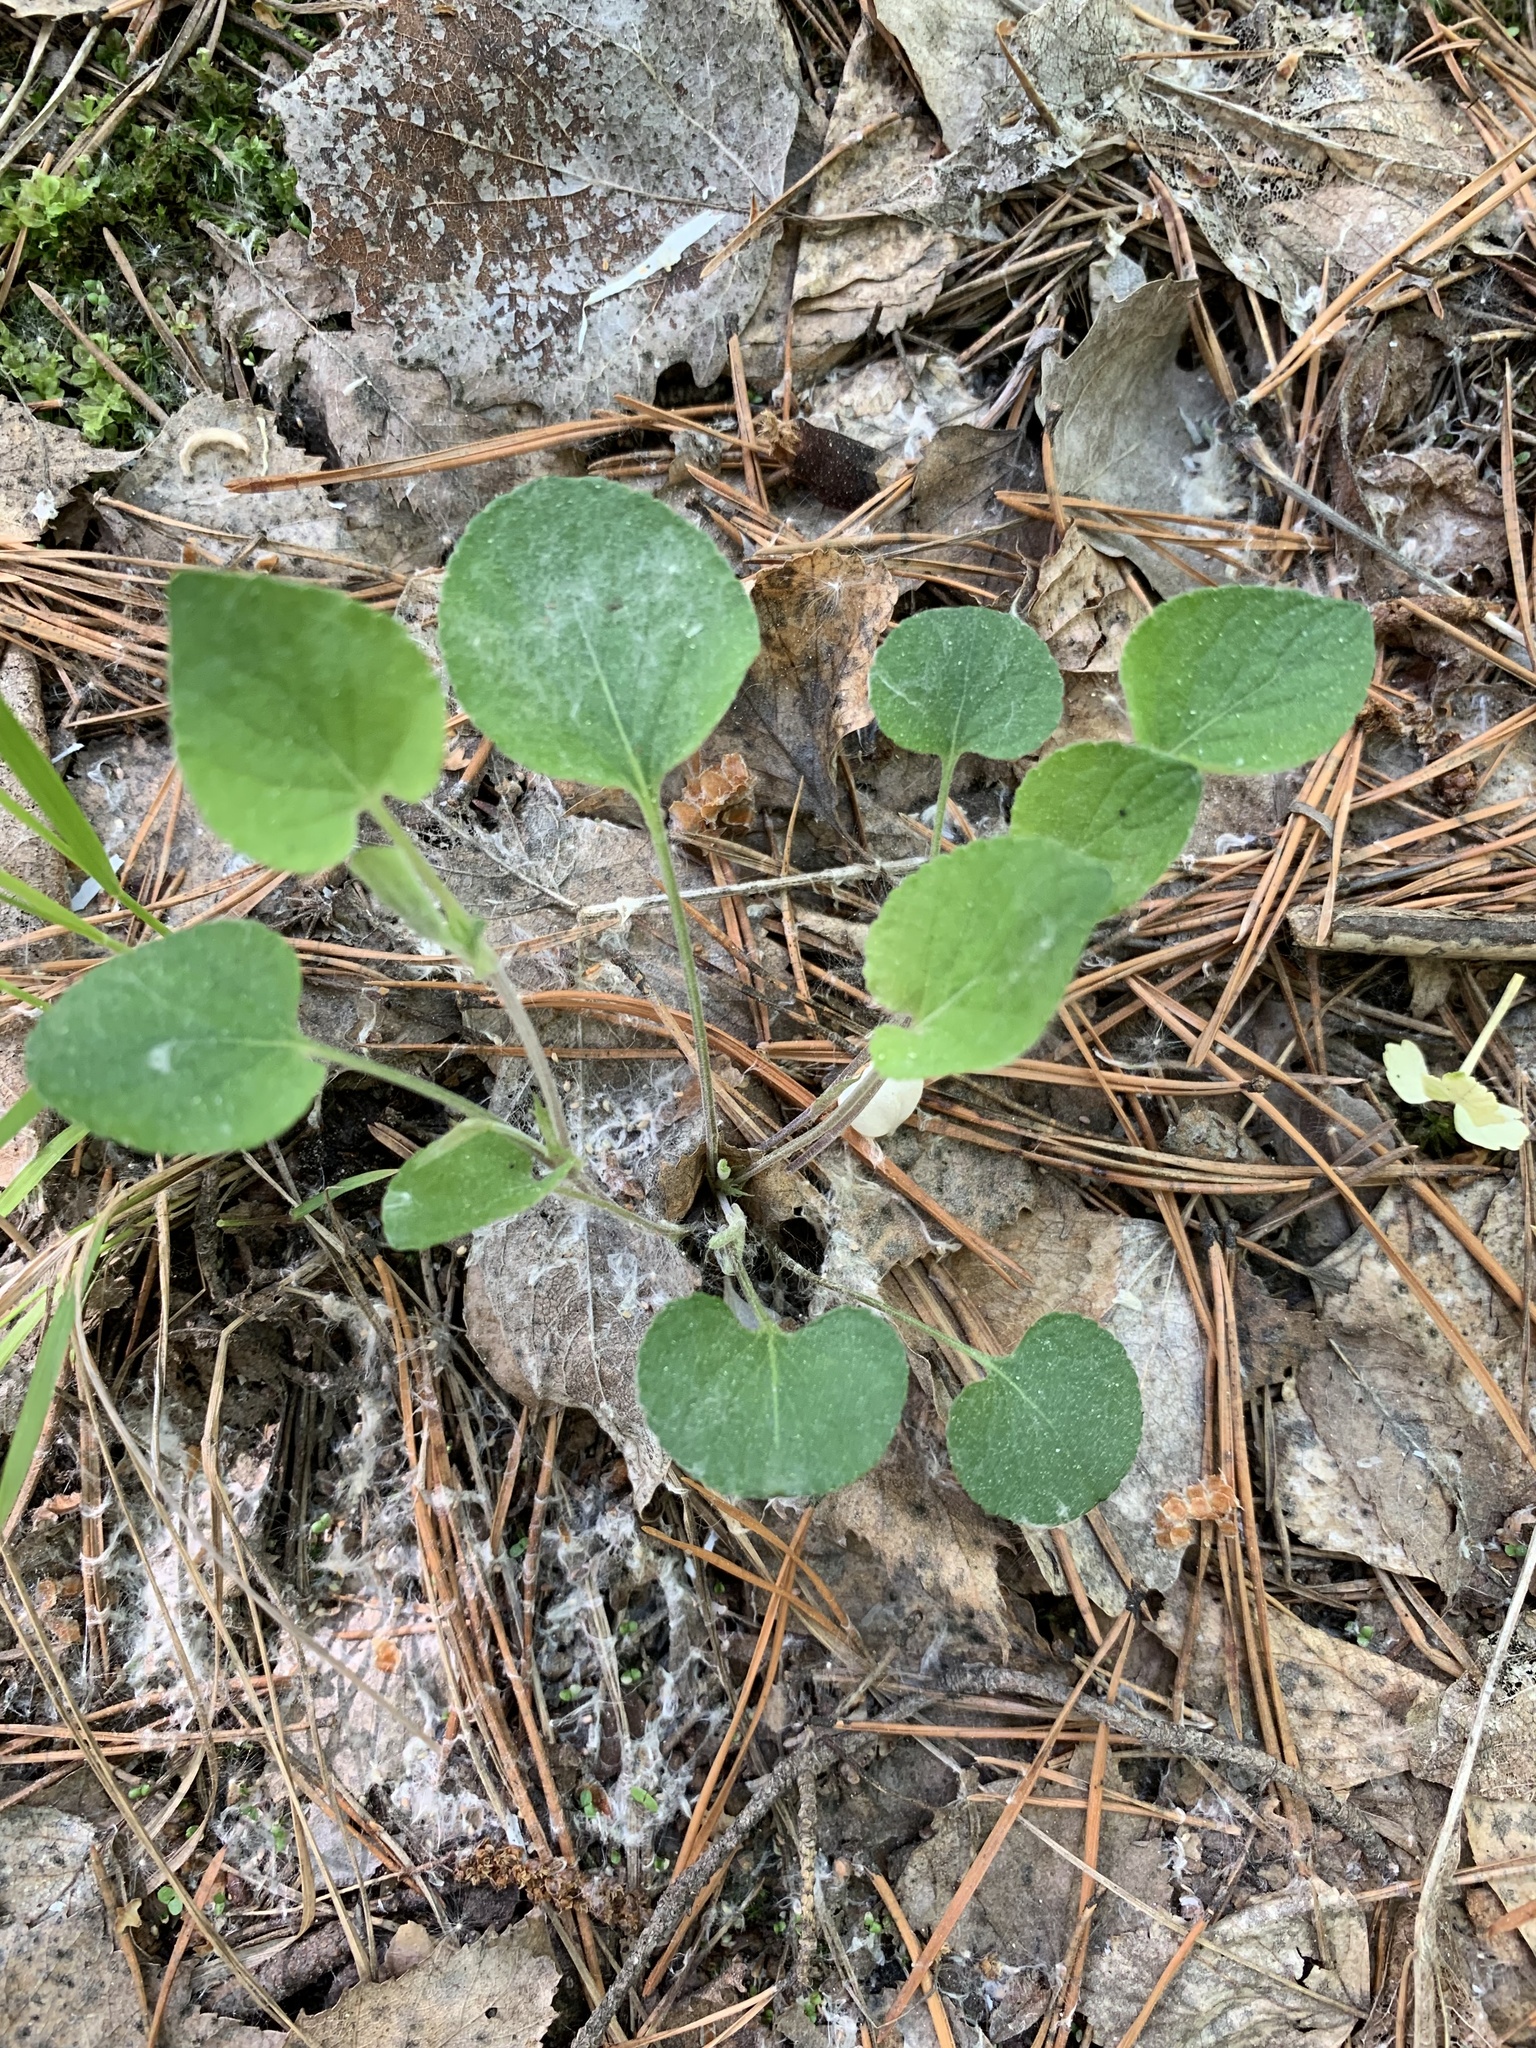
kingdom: Plantae
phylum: Tracheophyta
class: Magnoliopsida
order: Malpighiales
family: Violaceae
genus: Viola
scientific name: Viola rupestris
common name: Teesdale violet
